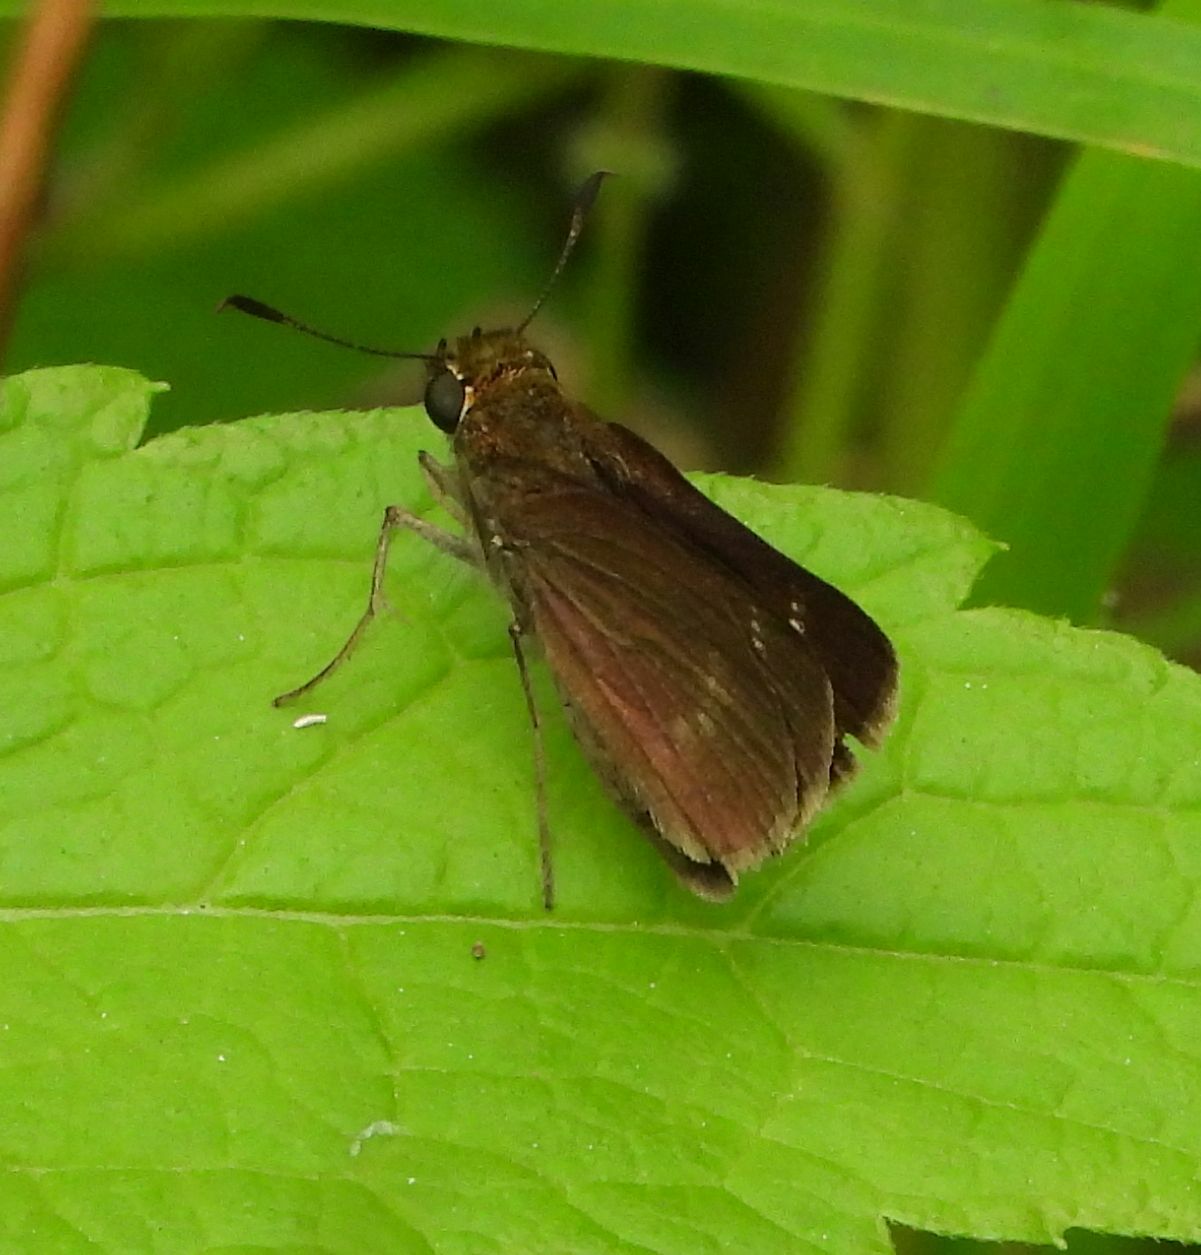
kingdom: Animalia
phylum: Arthropoda
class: Insecta
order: Lepidoptera
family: Hesperiidae
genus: Euphyes
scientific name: Euphyes vestris
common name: Dun skipper
